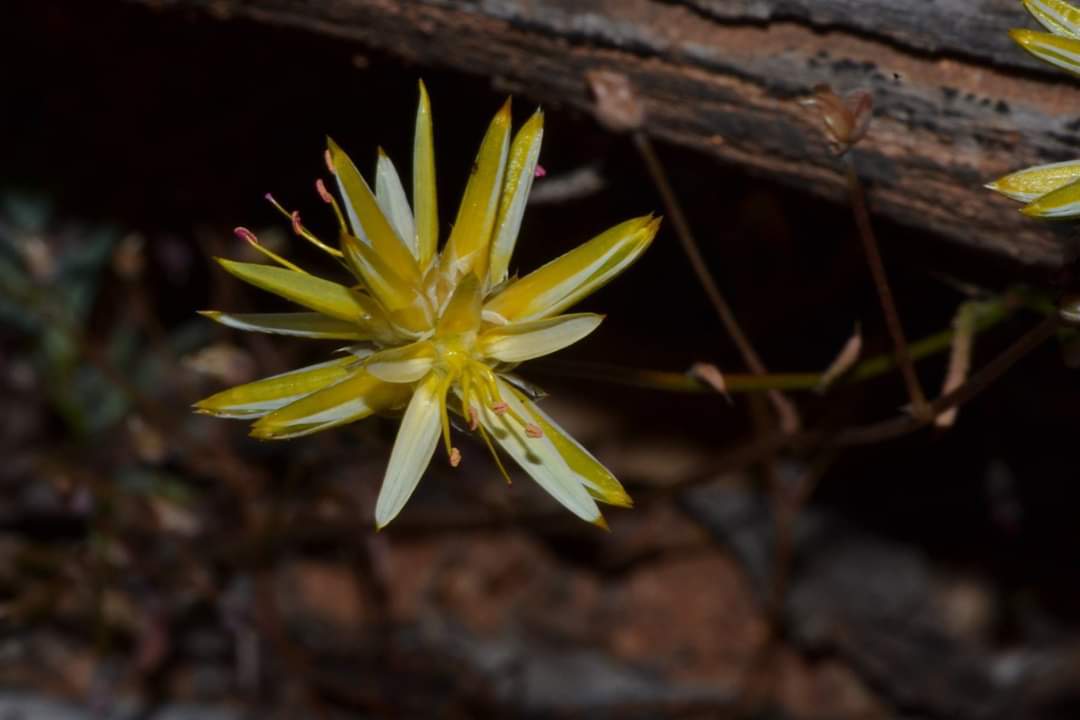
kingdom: Plantae
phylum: Tracheophyta
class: Magnoliopsida
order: Caryophyllales
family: Amaranthaceae
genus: Ptilotus
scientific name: Ptilotus gaudichaudii
